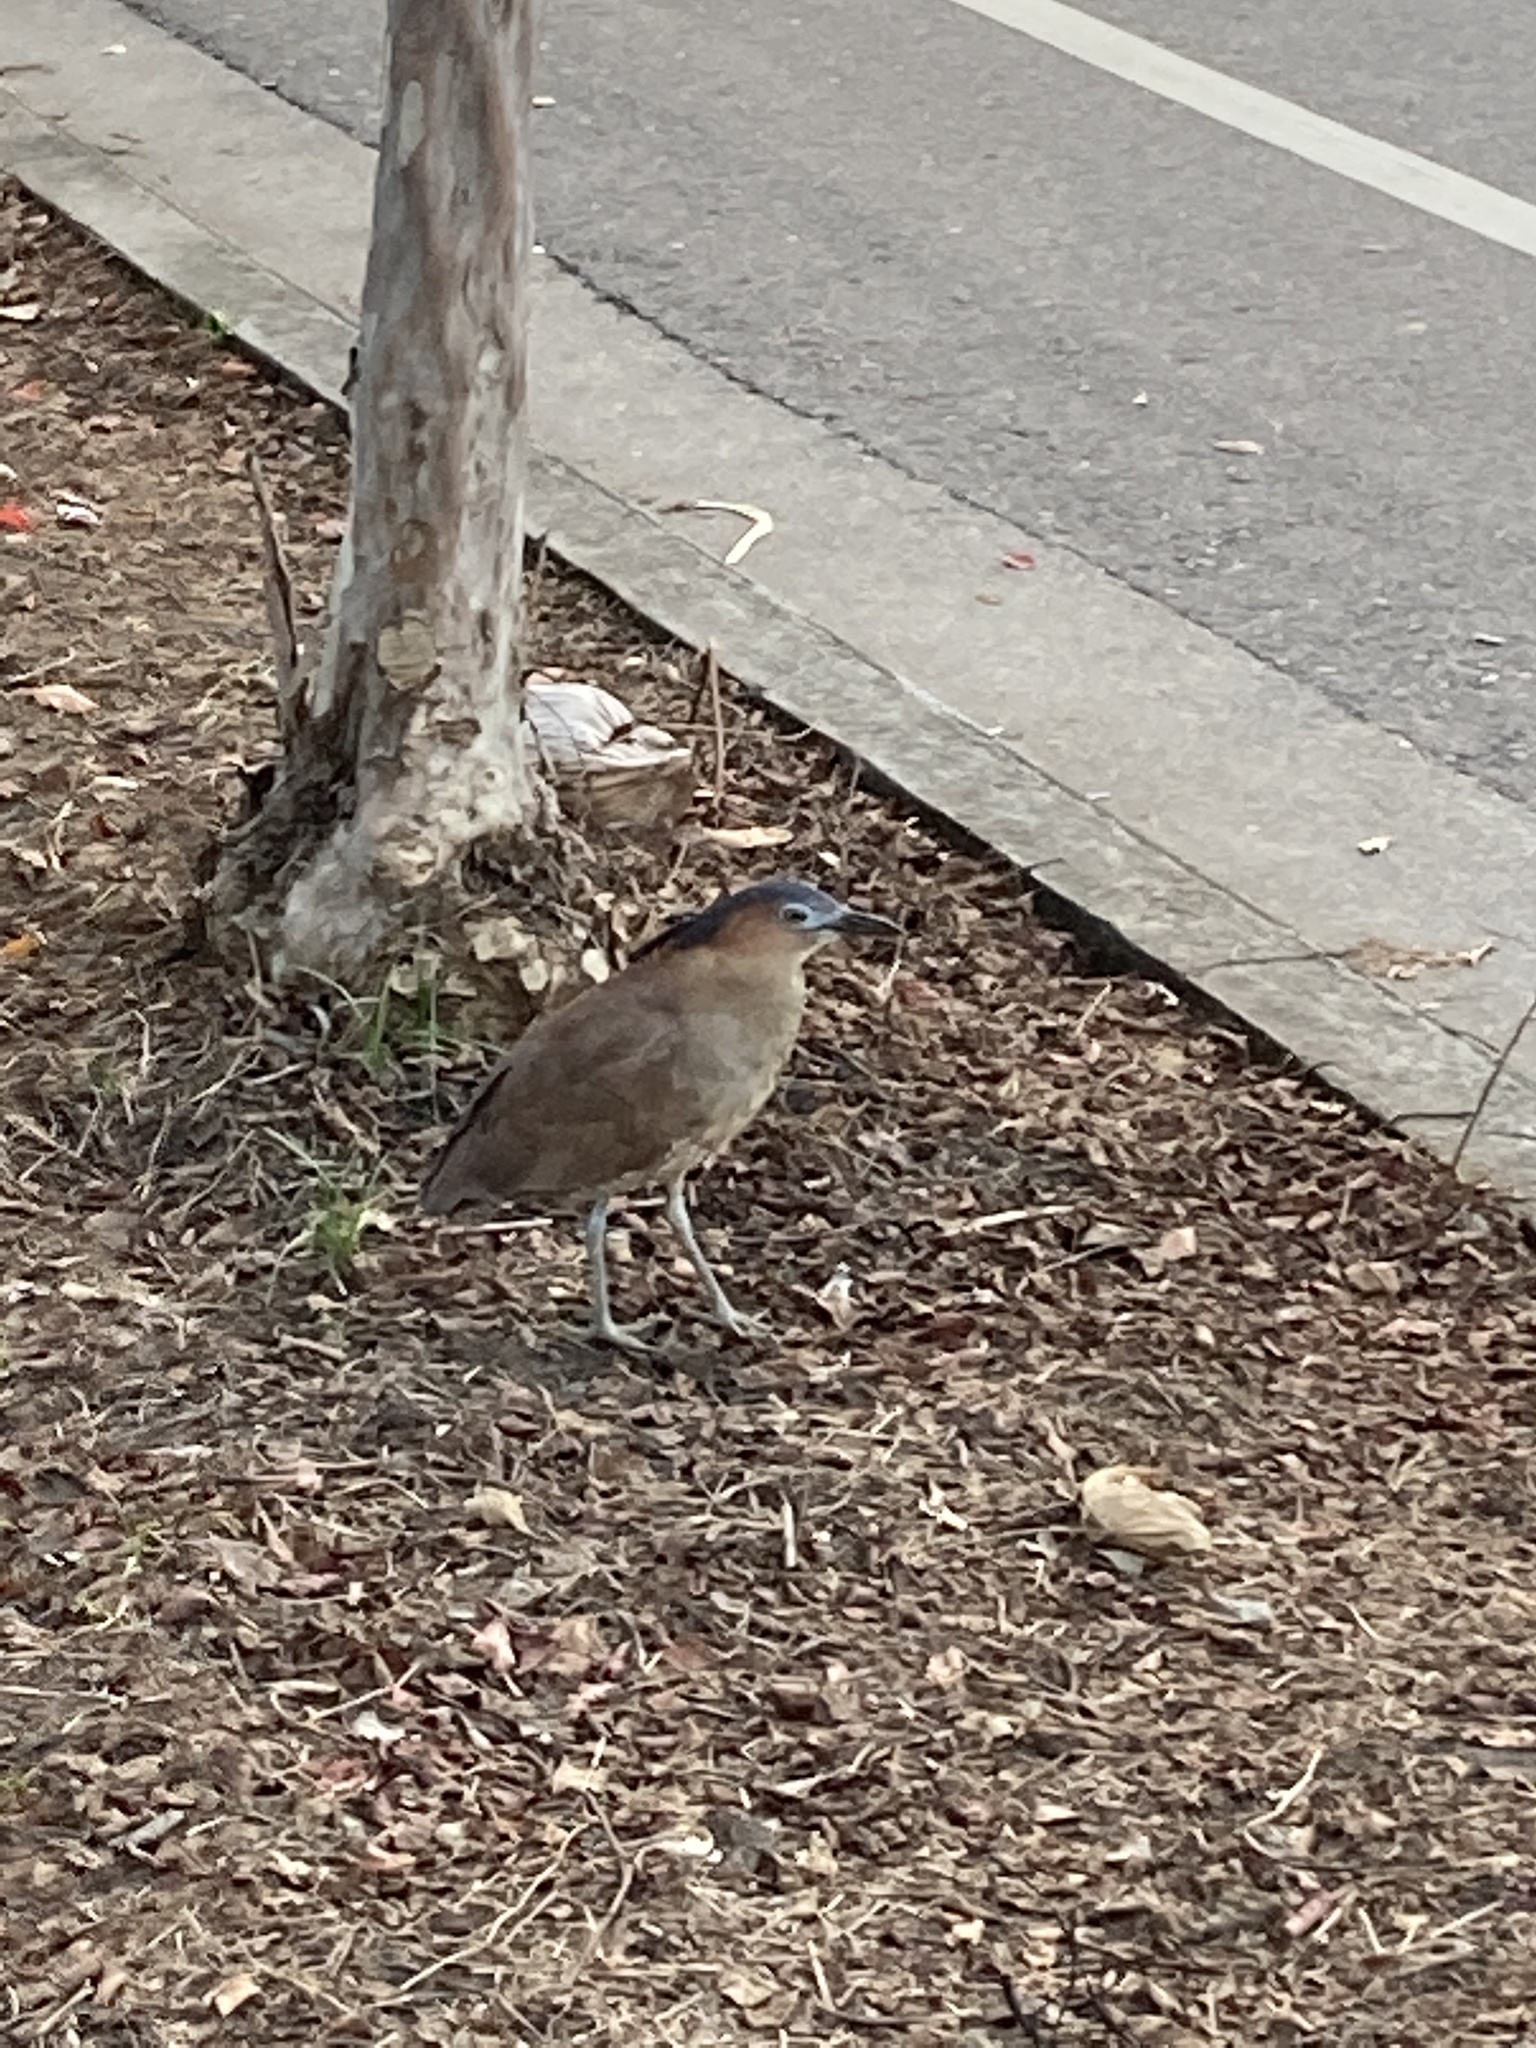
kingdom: Animalia
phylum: Chordata
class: Aves
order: Pelecaniformes
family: Ardeidae
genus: Gorsachius
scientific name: Gorsachius melanolophus
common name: Malayan night heron
